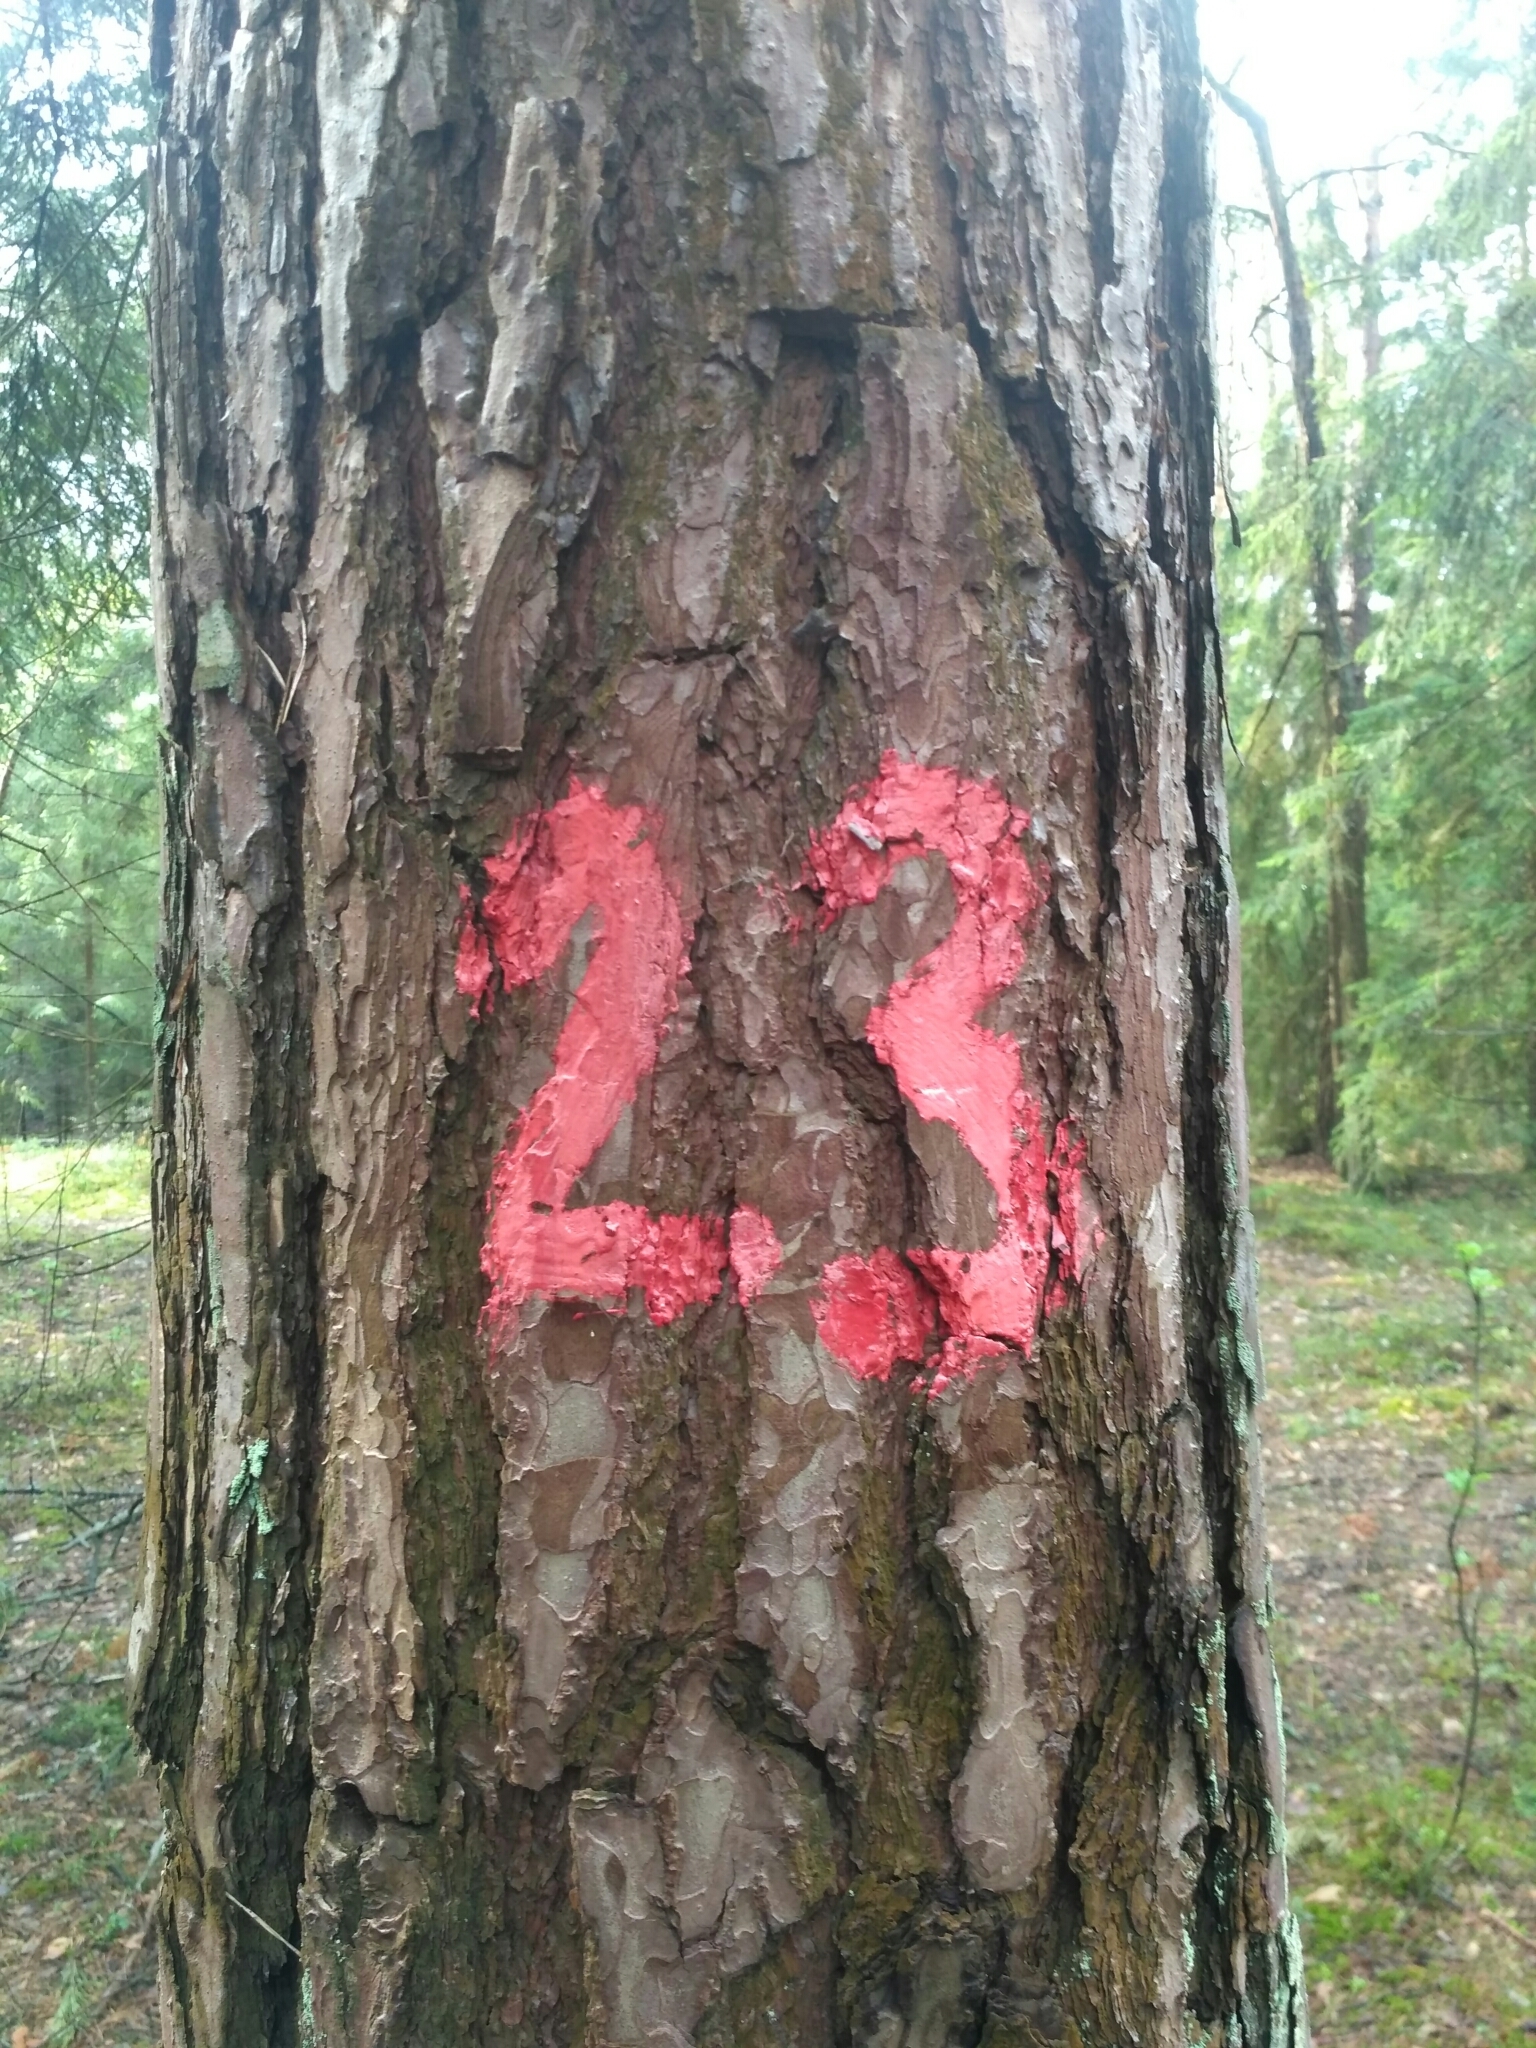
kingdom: Plantae
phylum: Tracheophyta
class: Pinopsida
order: Pinales
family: Pinaceae
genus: Pinus
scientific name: Pinus sylvestris
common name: Scots pine
